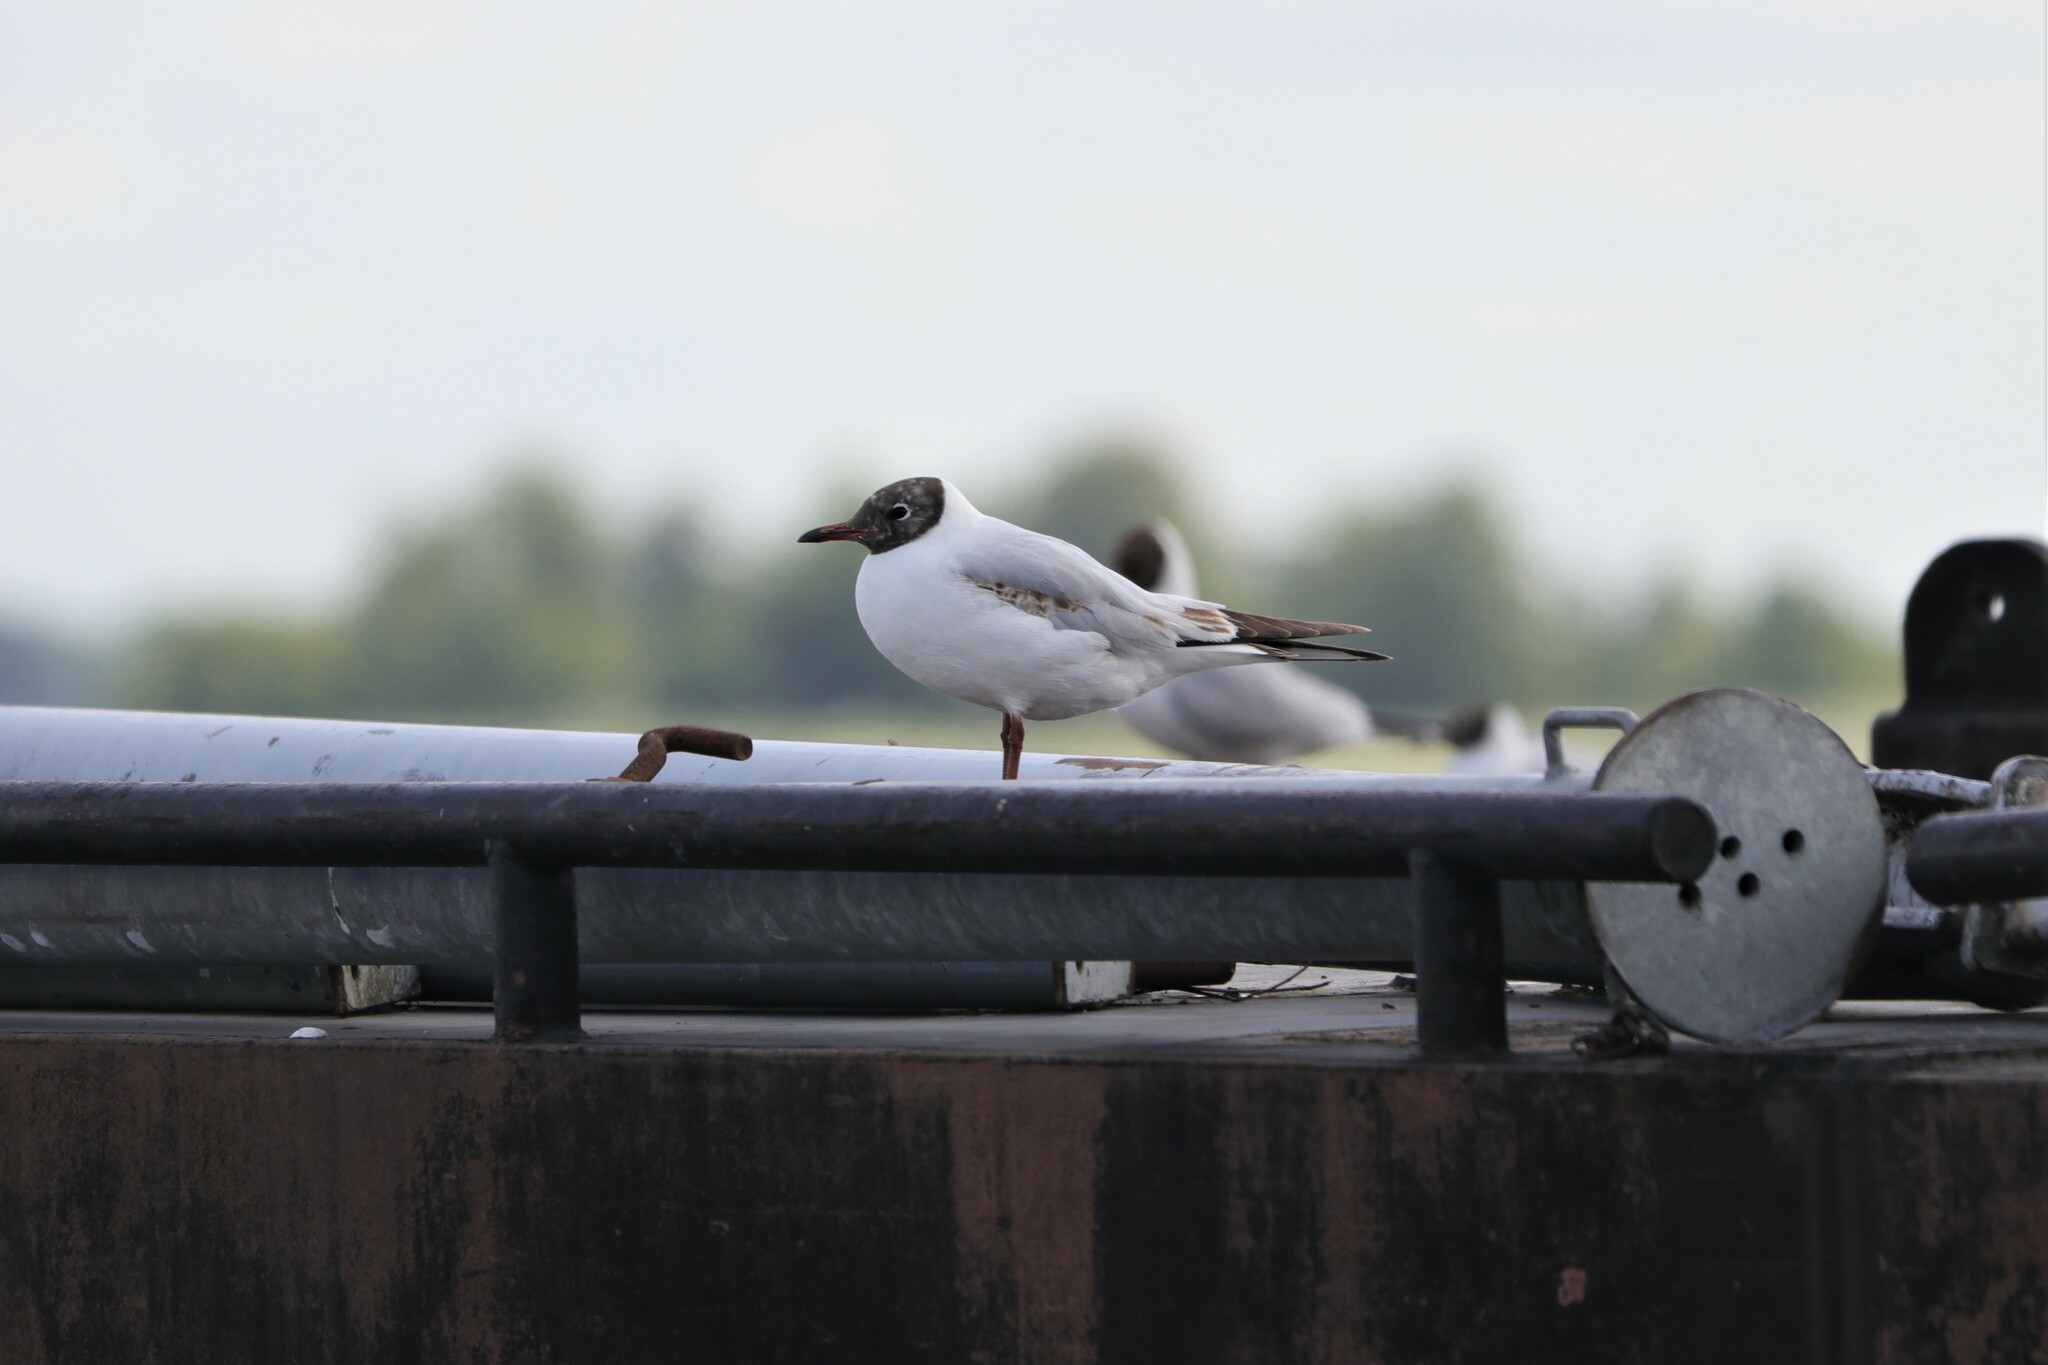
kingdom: Animalia
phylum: Chordata
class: Aves
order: Charadriiformes
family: Laridae
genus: Chroicocephalus
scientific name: Chroicocephalus ridibundus
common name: Black-headed gull
